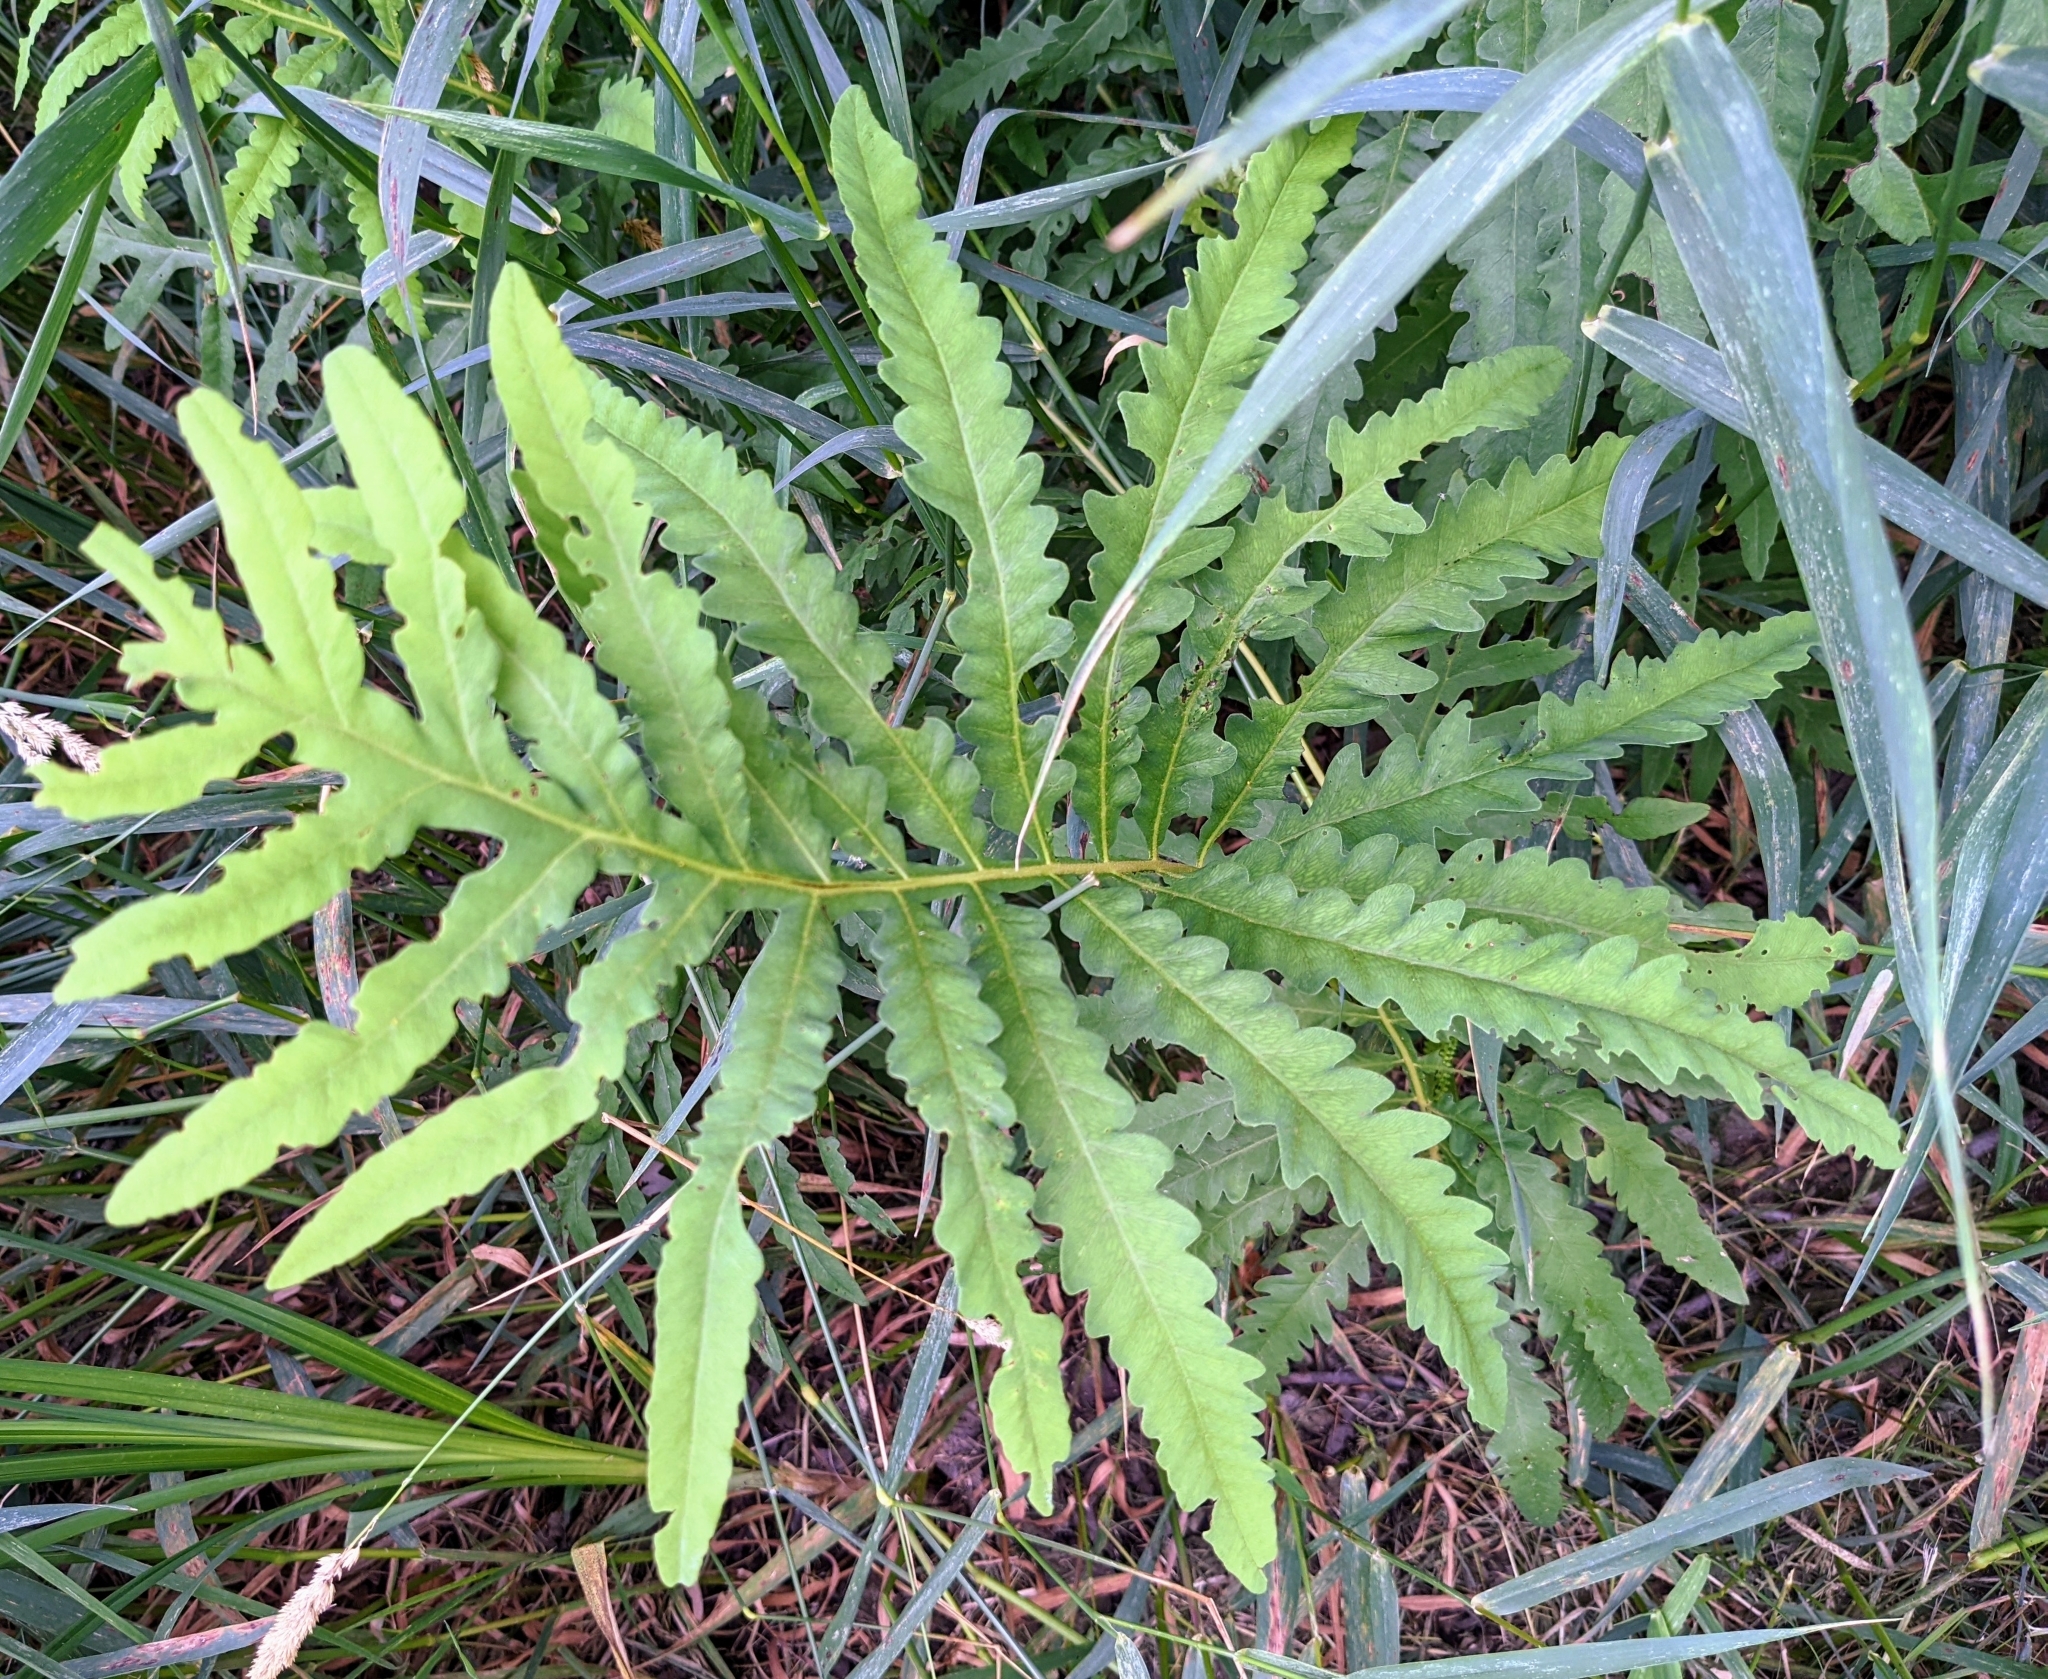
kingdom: Plantae
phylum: Tracheophyta
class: Polypodiopsida
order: Polypodiales
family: Onocleaceae
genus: Onoclea
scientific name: Onoclea sensibilis
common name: Sensitive fern
